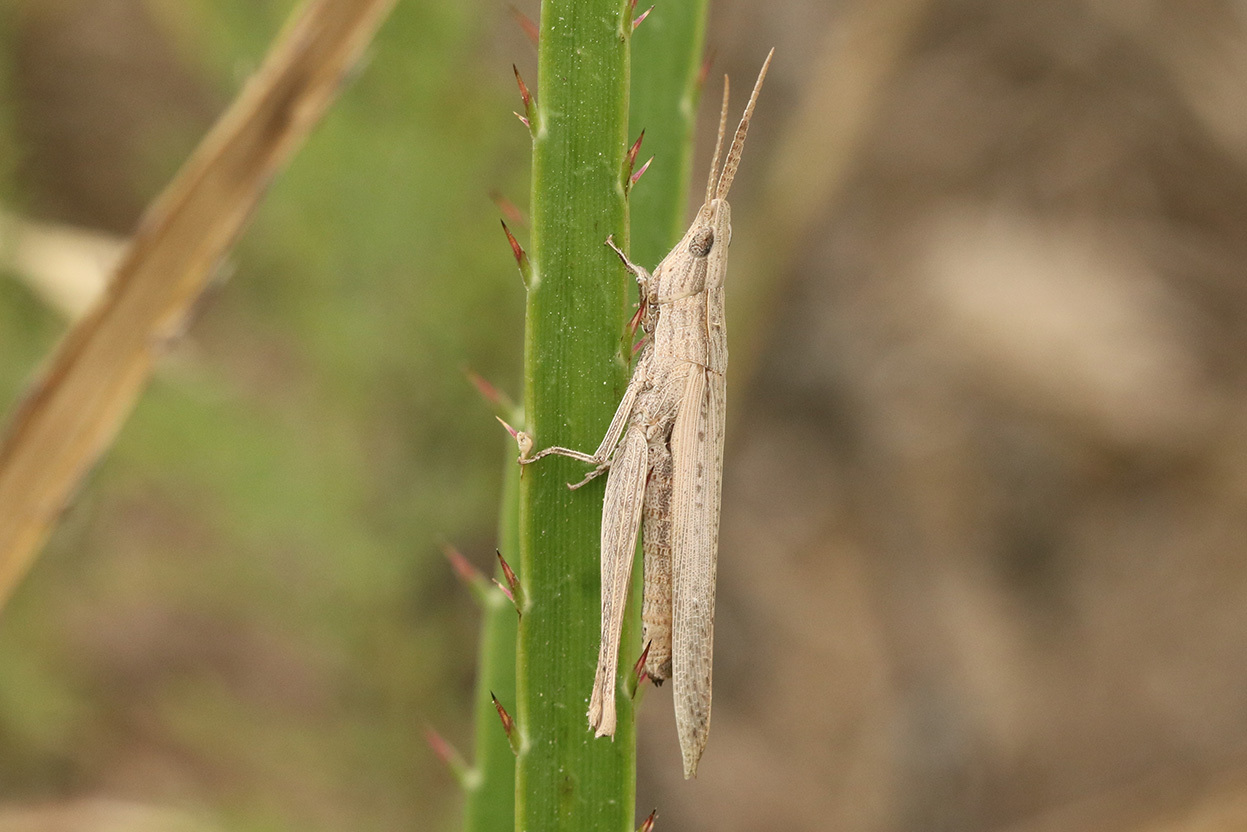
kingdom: Animalia
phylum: Arthropoda
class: Insecta
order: Orthoptera
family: Acrididae
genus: Allotruxalis
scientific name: Allotruxalis gracilis
